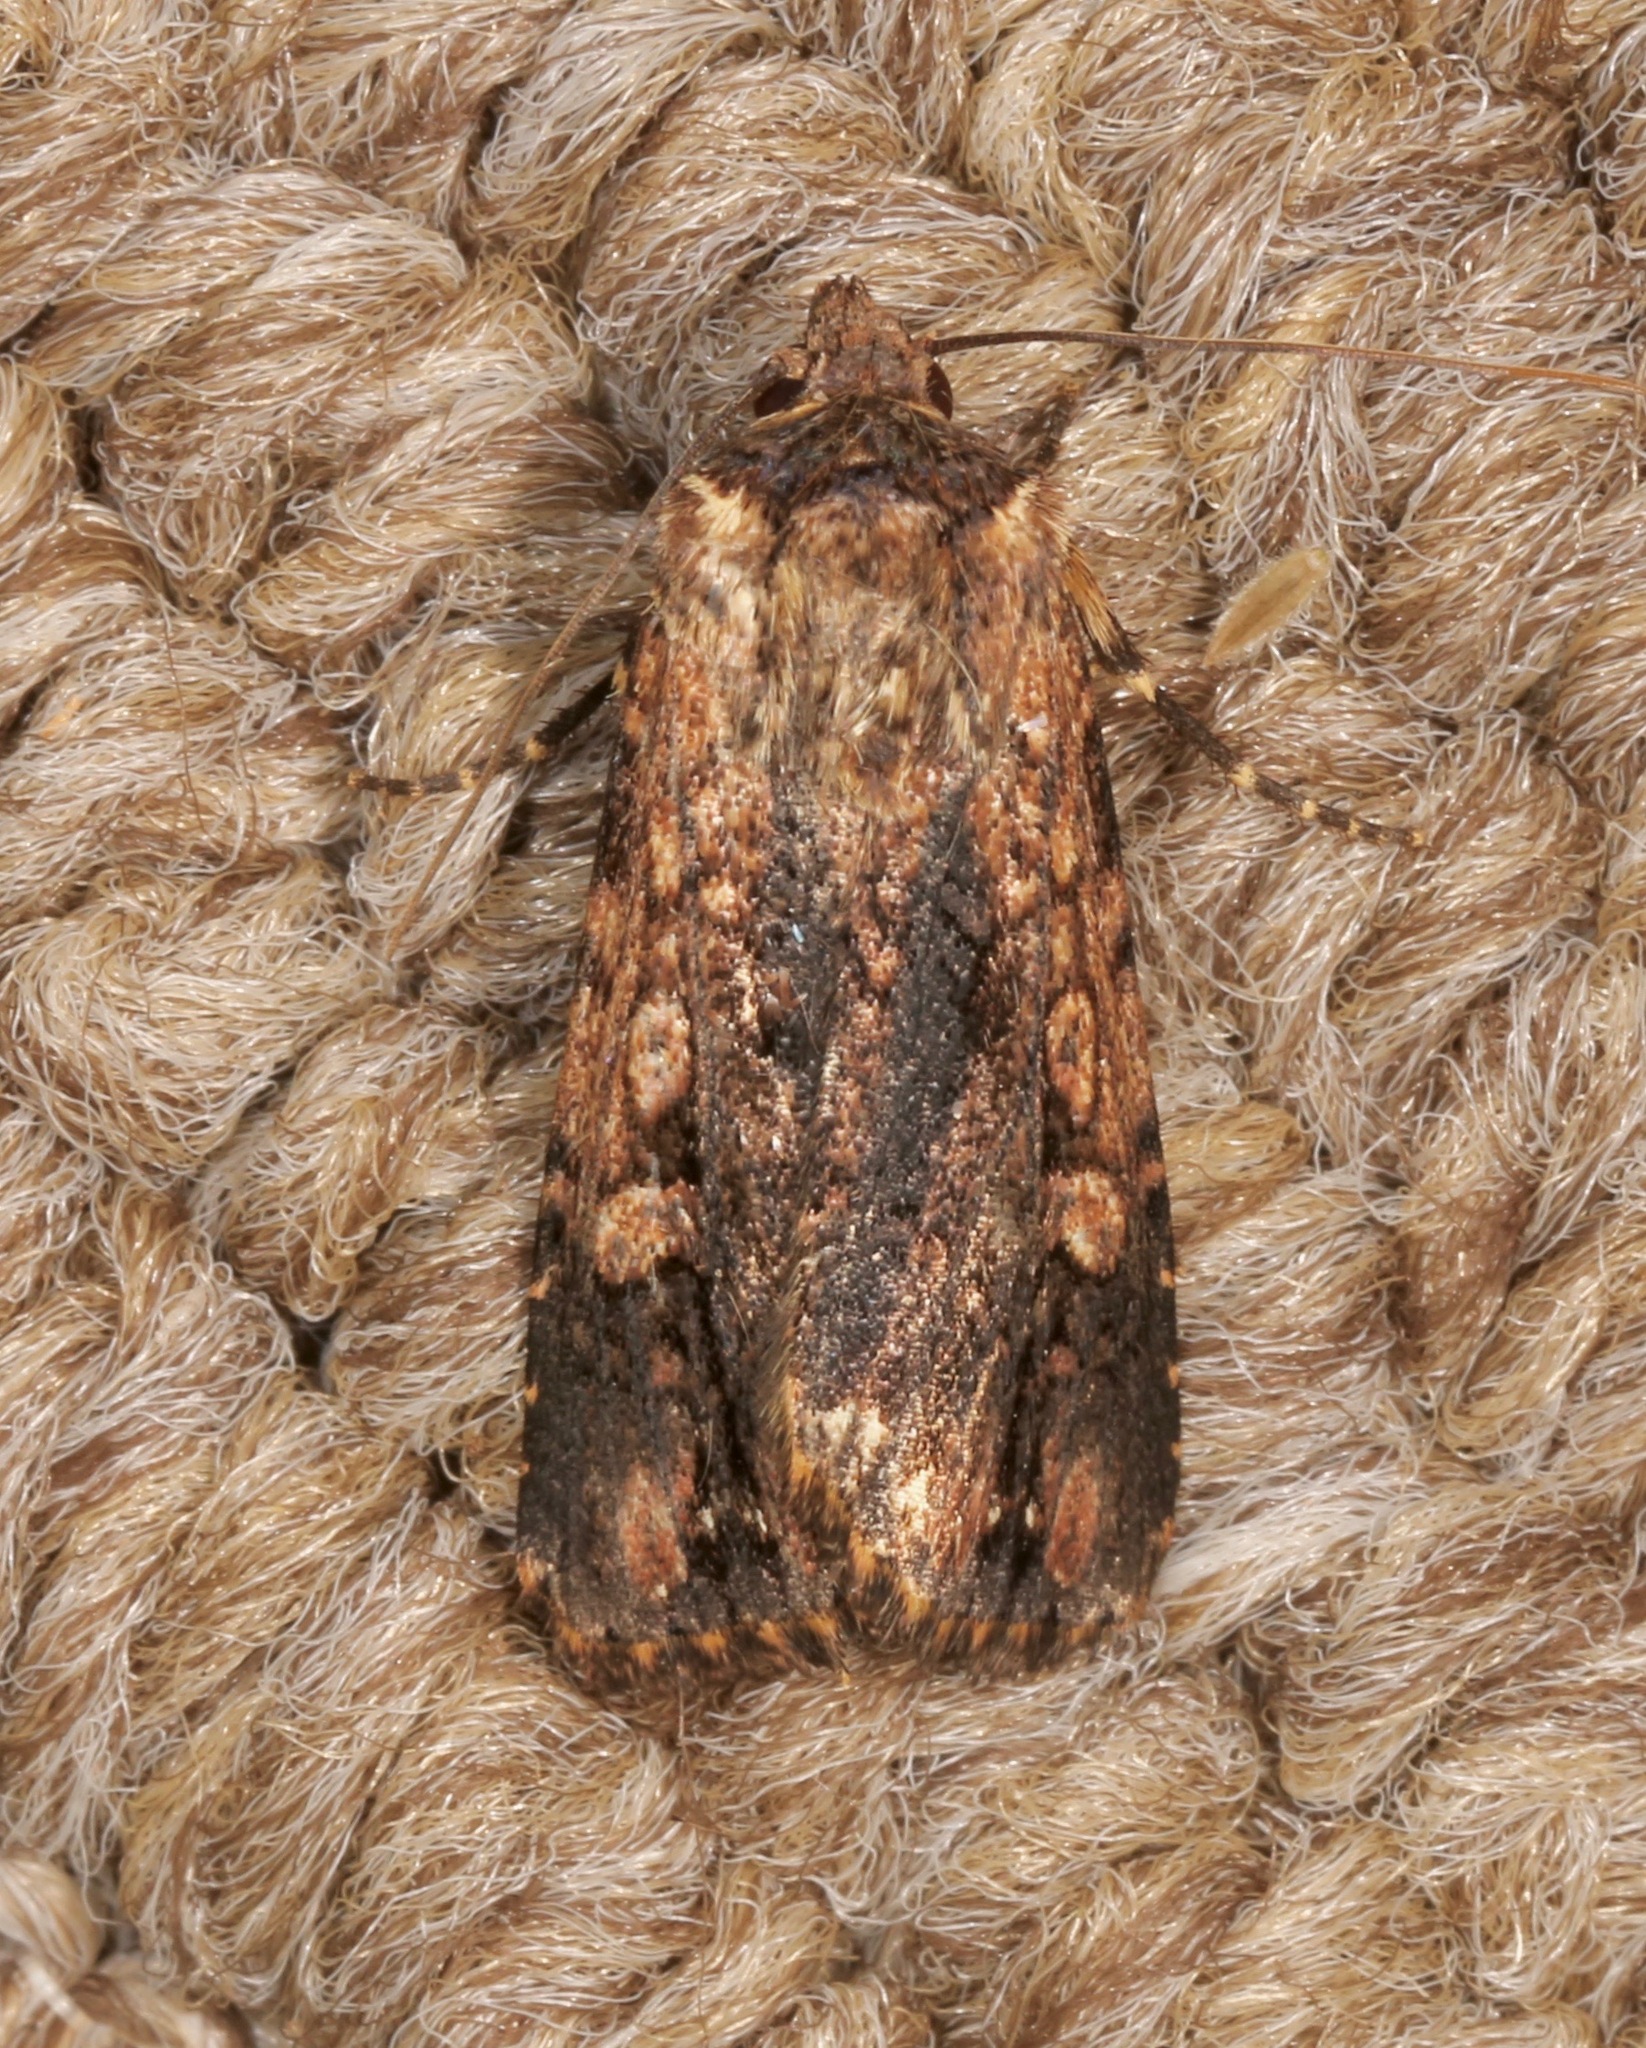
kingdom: Animalia
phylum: Arthropoda
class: Insecta
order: Lepidoptera
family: Noctuidae
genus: Dichagyris
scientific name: Dichagyris proclivis
